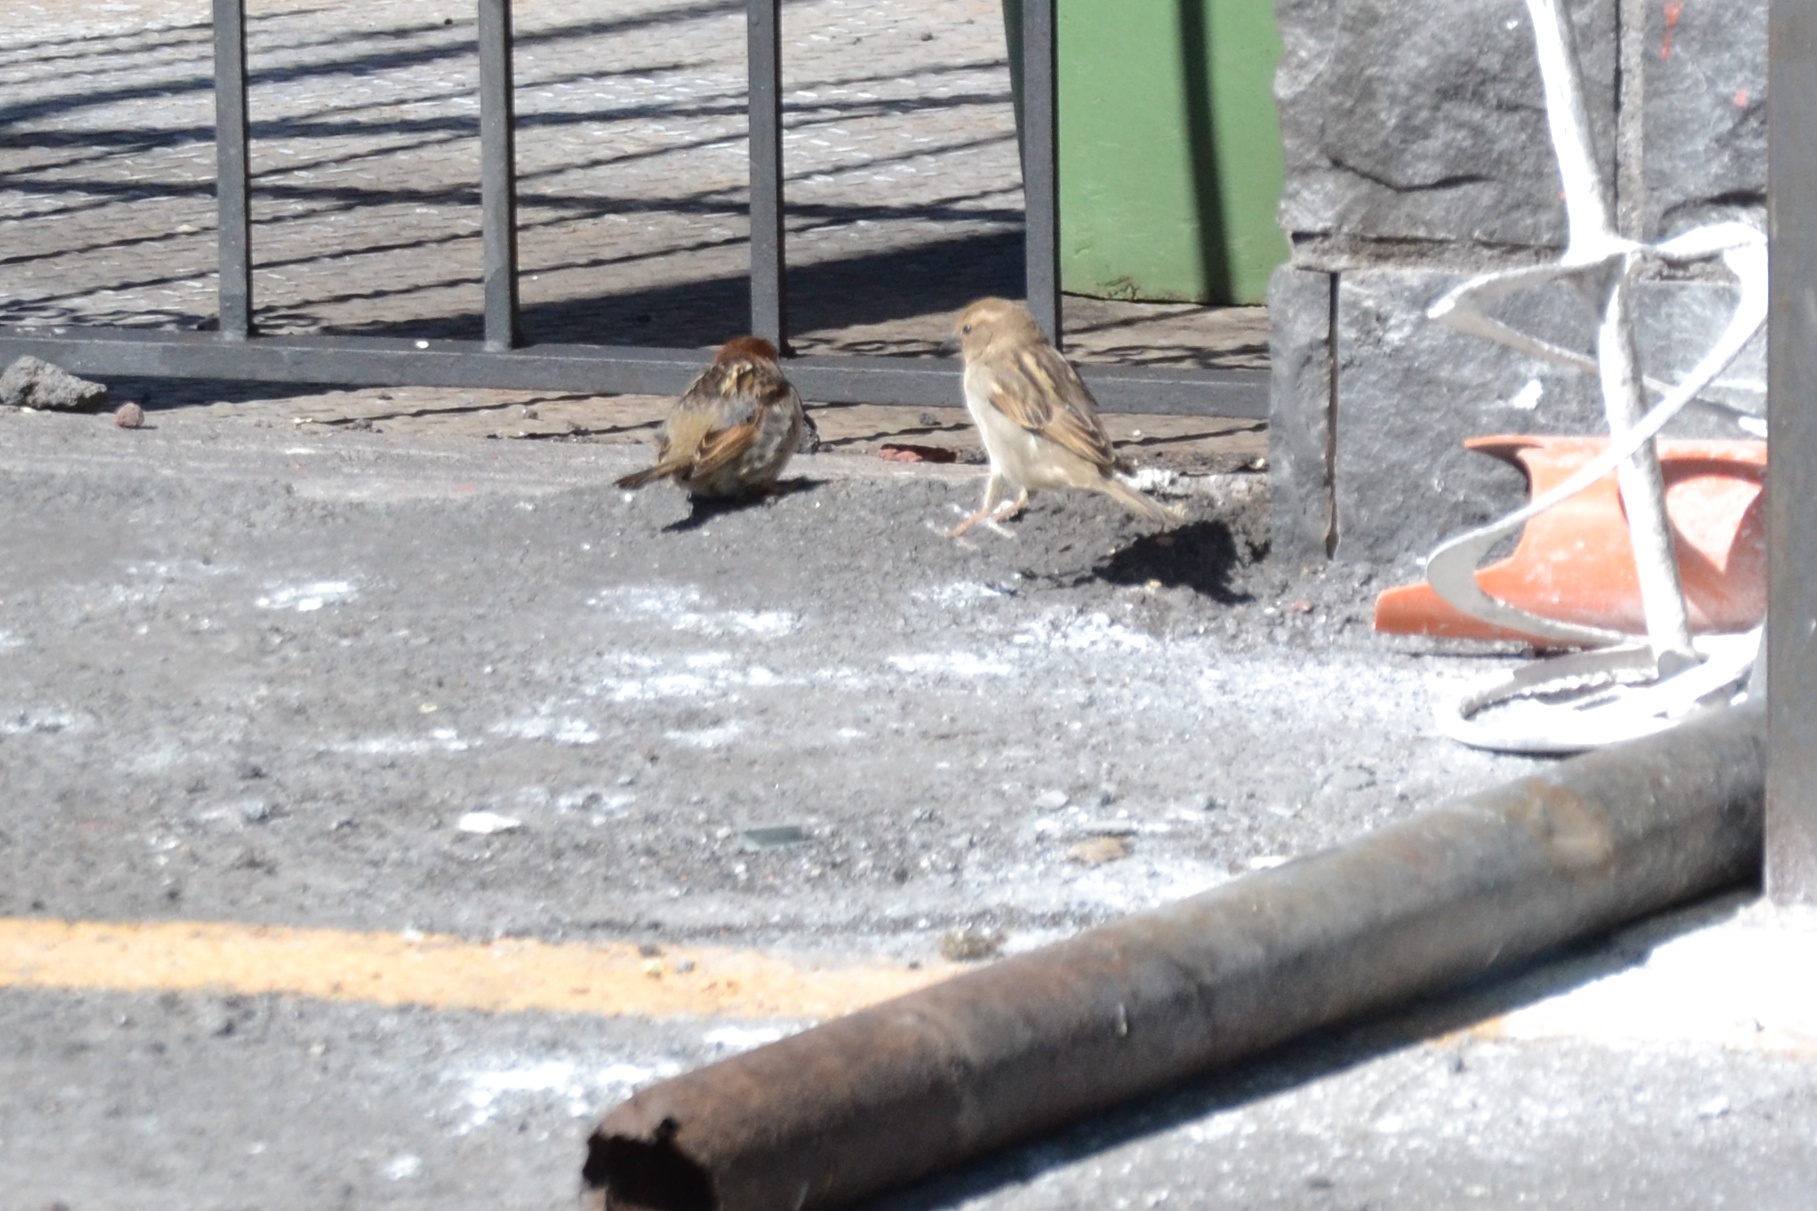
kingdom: Animalia
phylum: Chordata
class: Aves
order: Passeriformes
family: Passeridae
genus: Passer
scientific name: Passer italiae
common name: Italian sparrow
